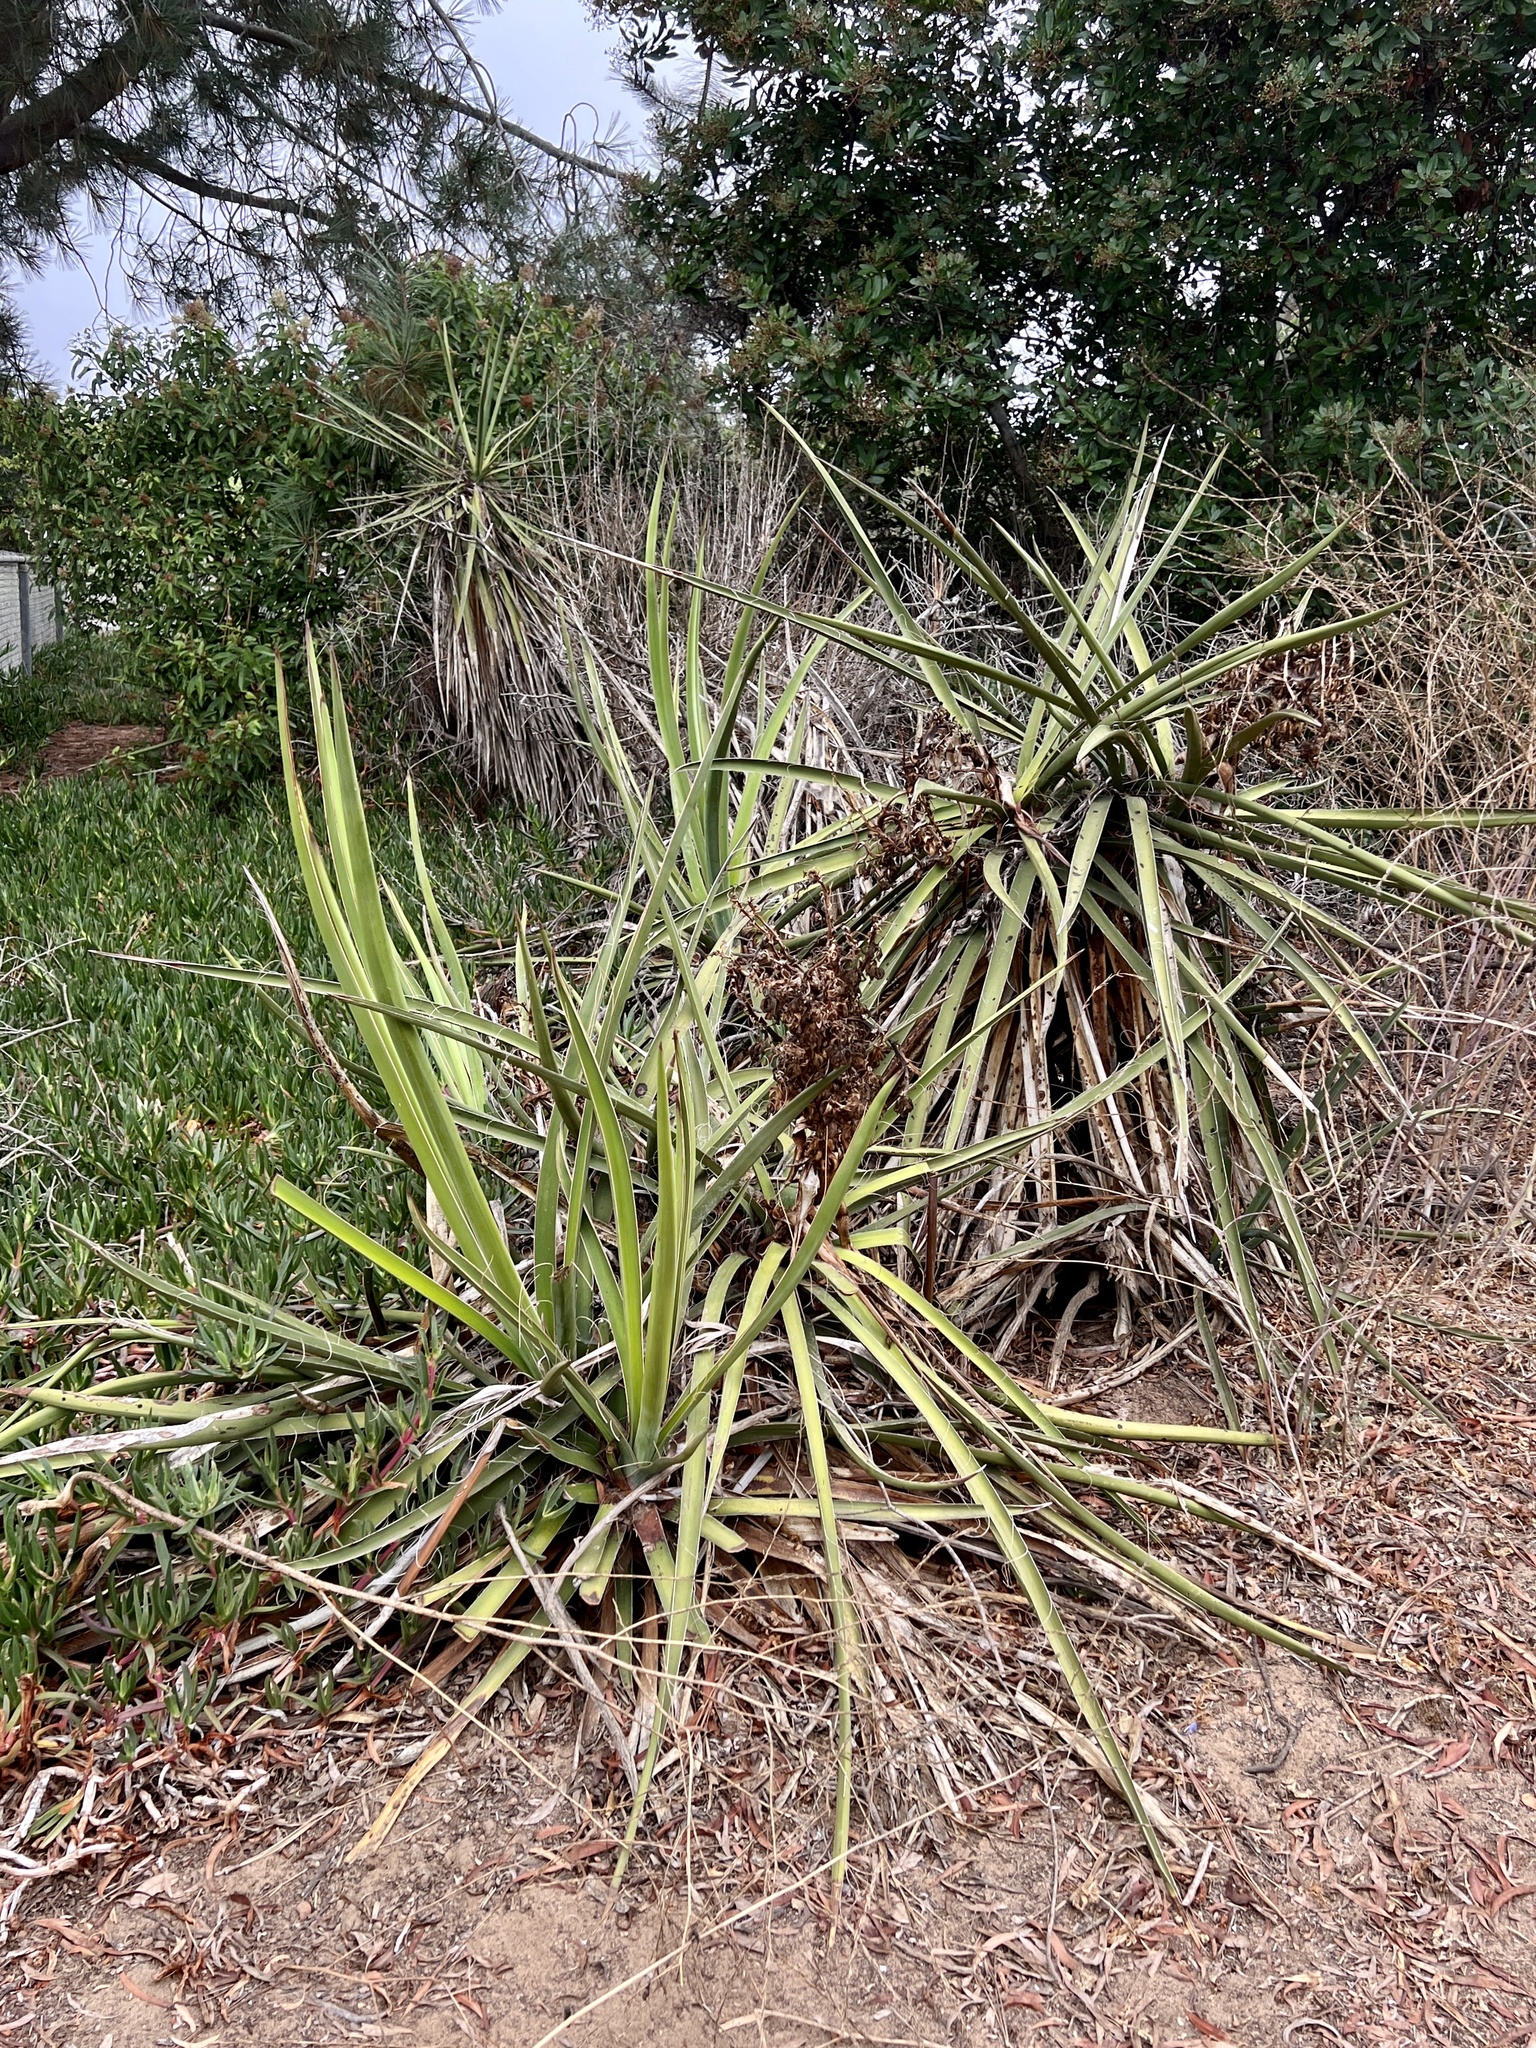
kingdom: Plantae
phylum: Tracheophyta
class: Liliopsida
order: Asparagales
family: Asparagaceae
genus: Yucca
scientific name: Yucca schidigera
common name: Mojave yucca
